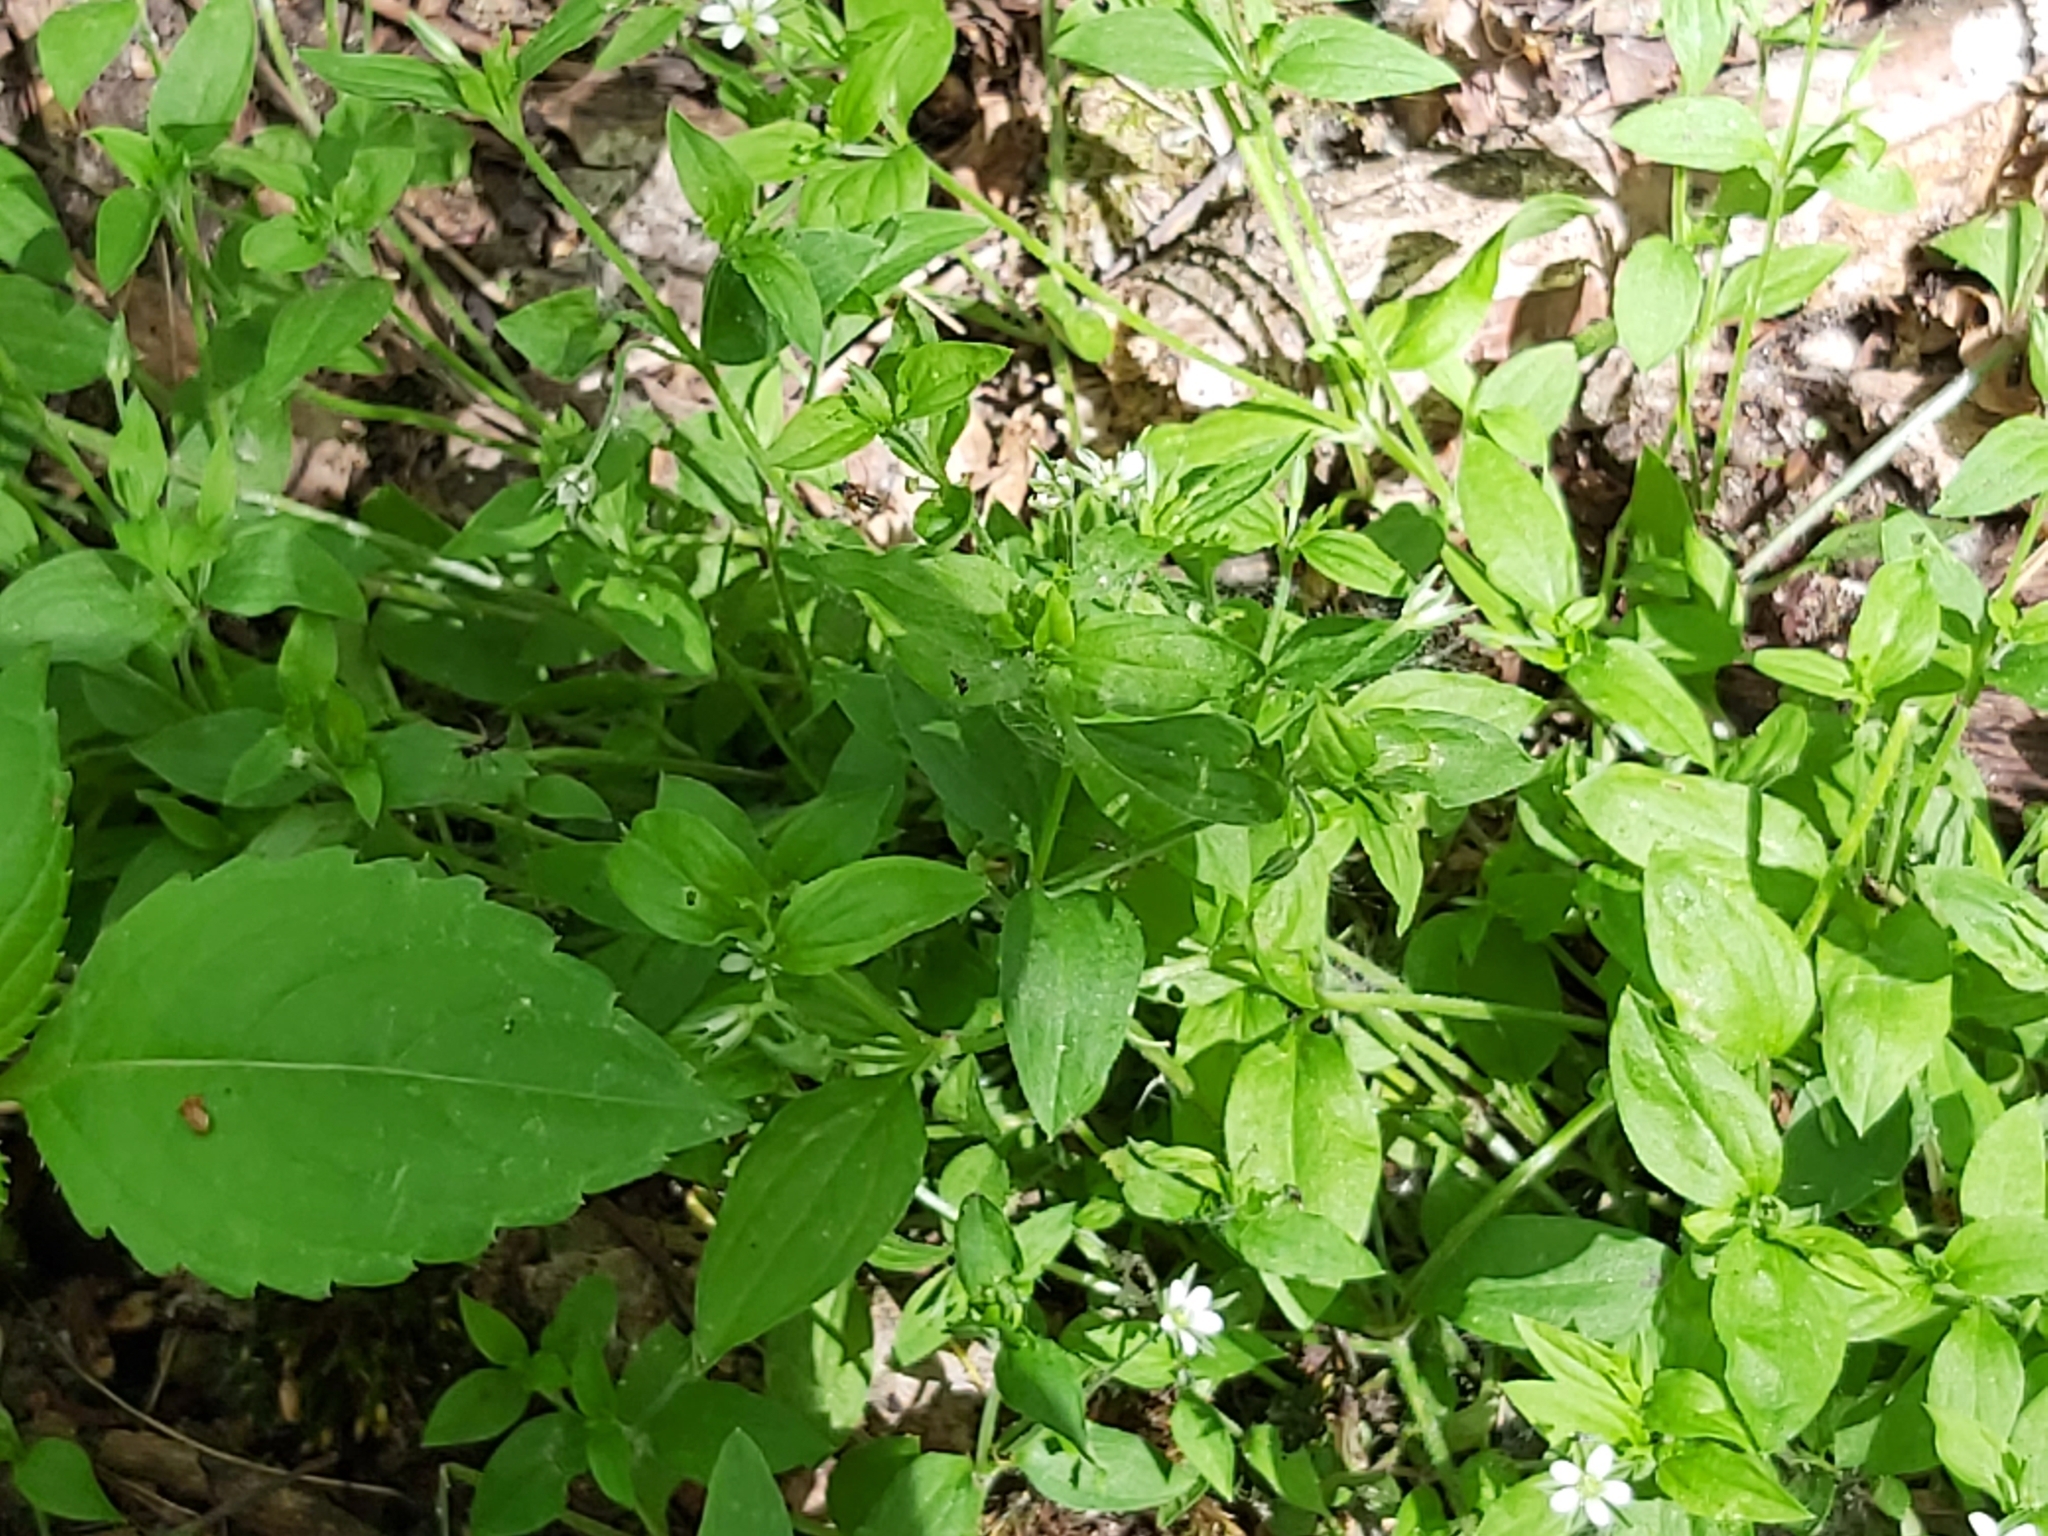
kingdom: Plantae
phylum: Tracheophyta
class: Magnoliopsida
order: Caryophyllales
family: Caryophyllaceae
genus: Moehringia
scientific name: Moehringia trinervia
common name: Three-nerved sandwort
